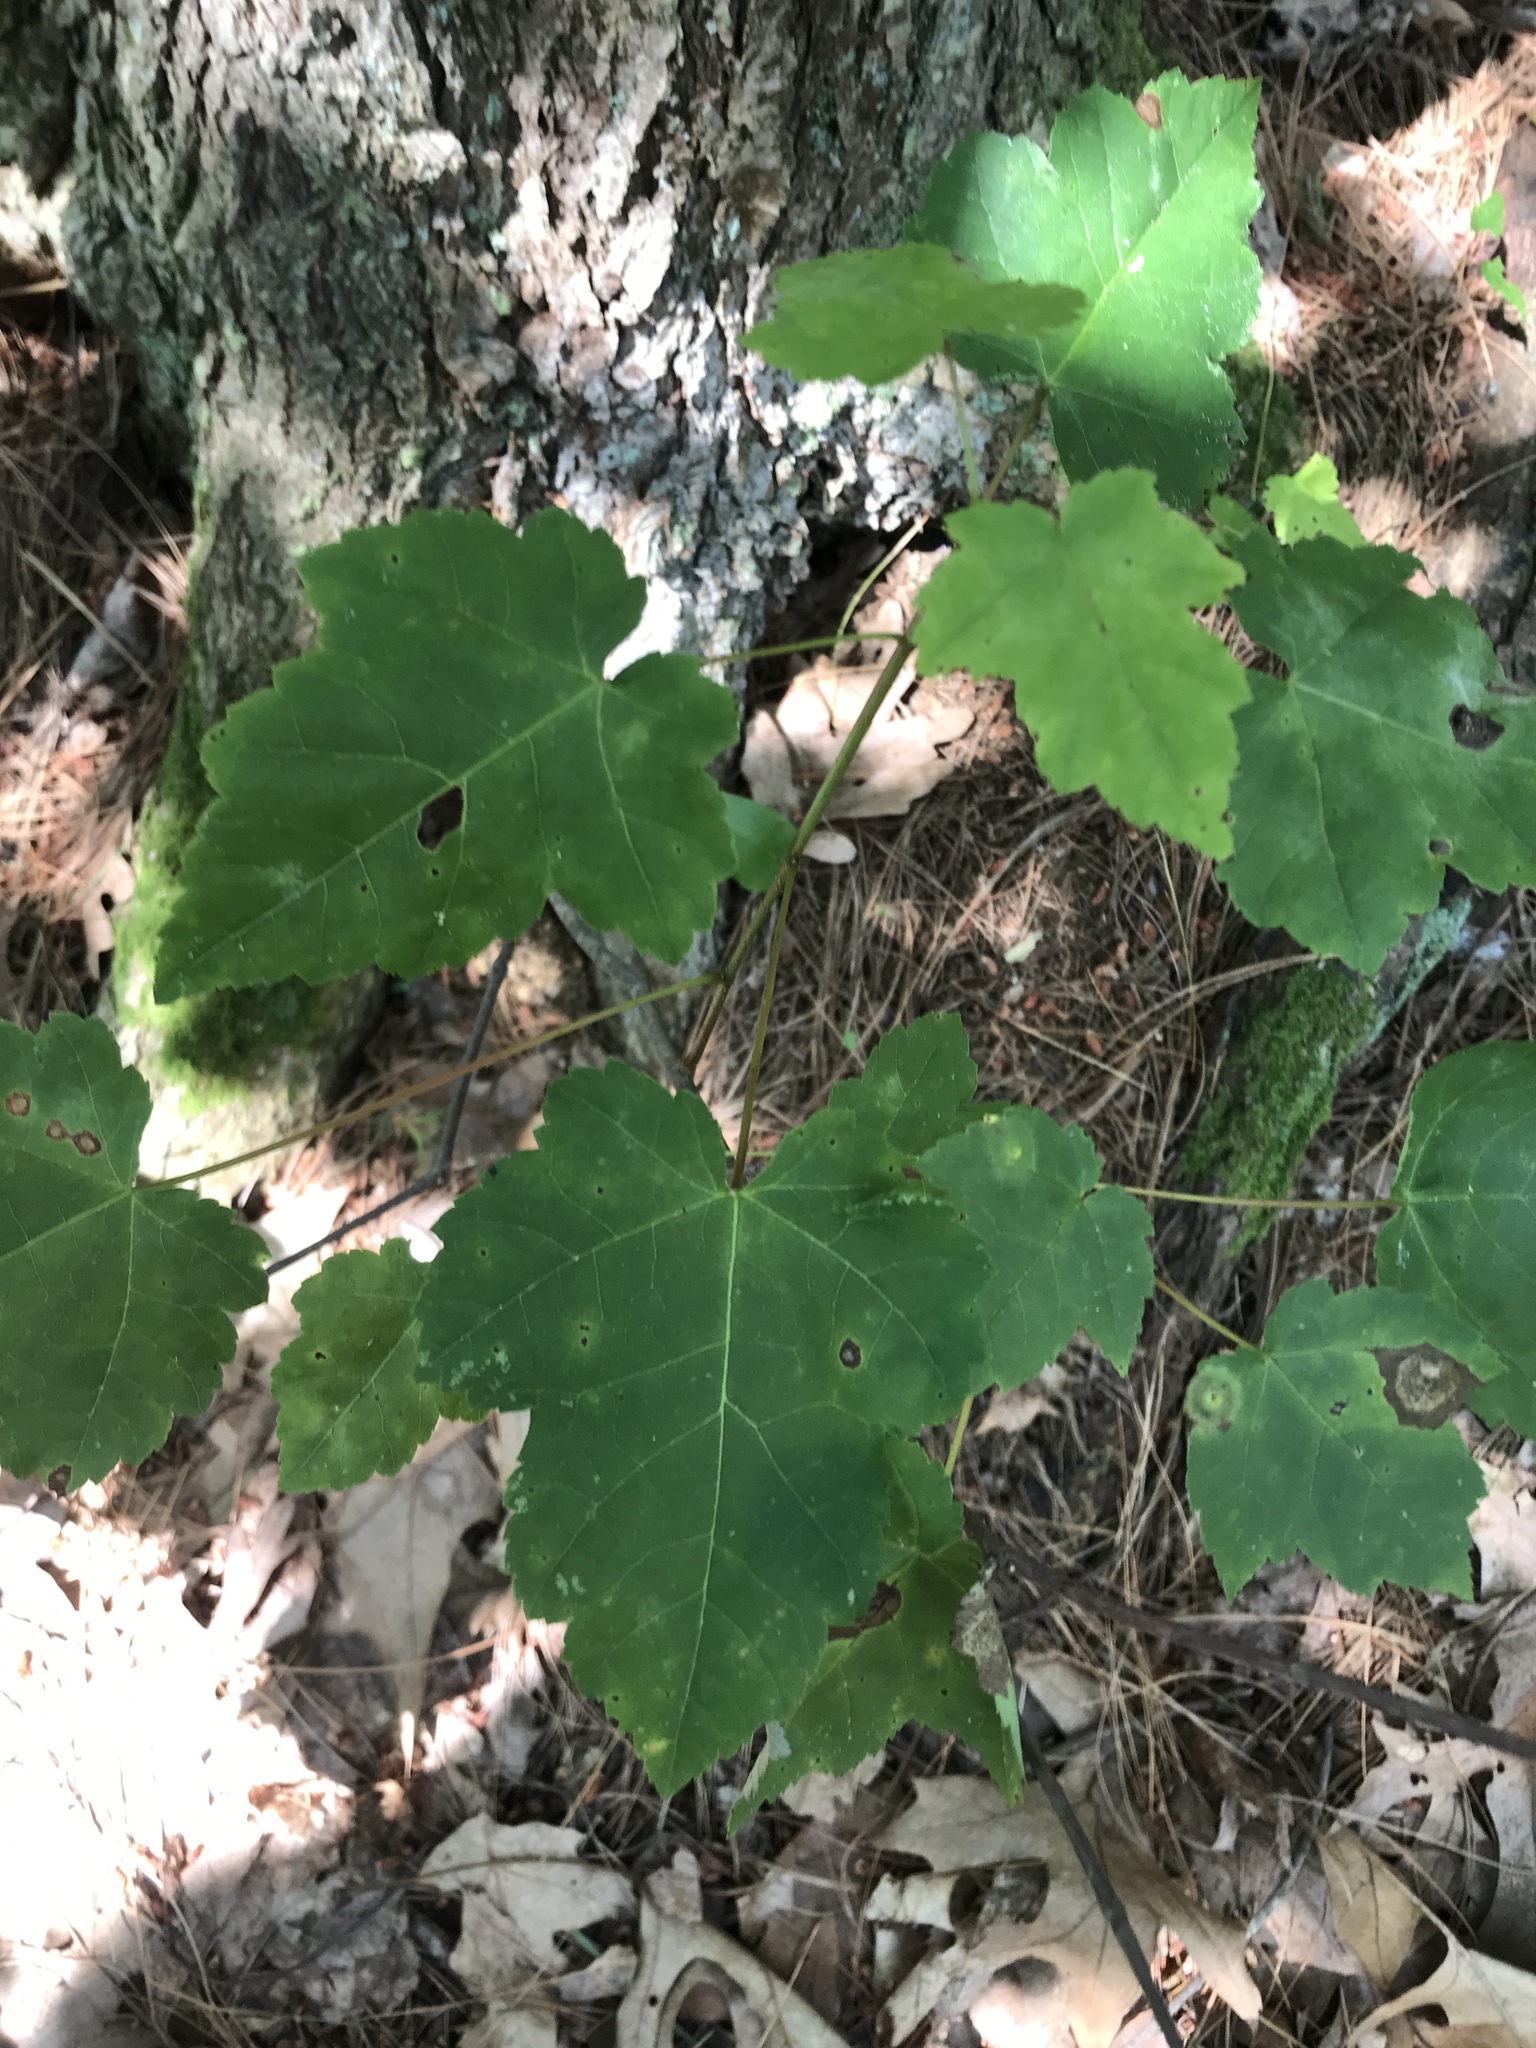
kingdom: Plantae
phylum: Tracheophyta
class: Magnoliopsida
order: Sapindales
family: Sapindaceae
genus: Acer
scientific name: Acer rubrum
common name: Red maple
